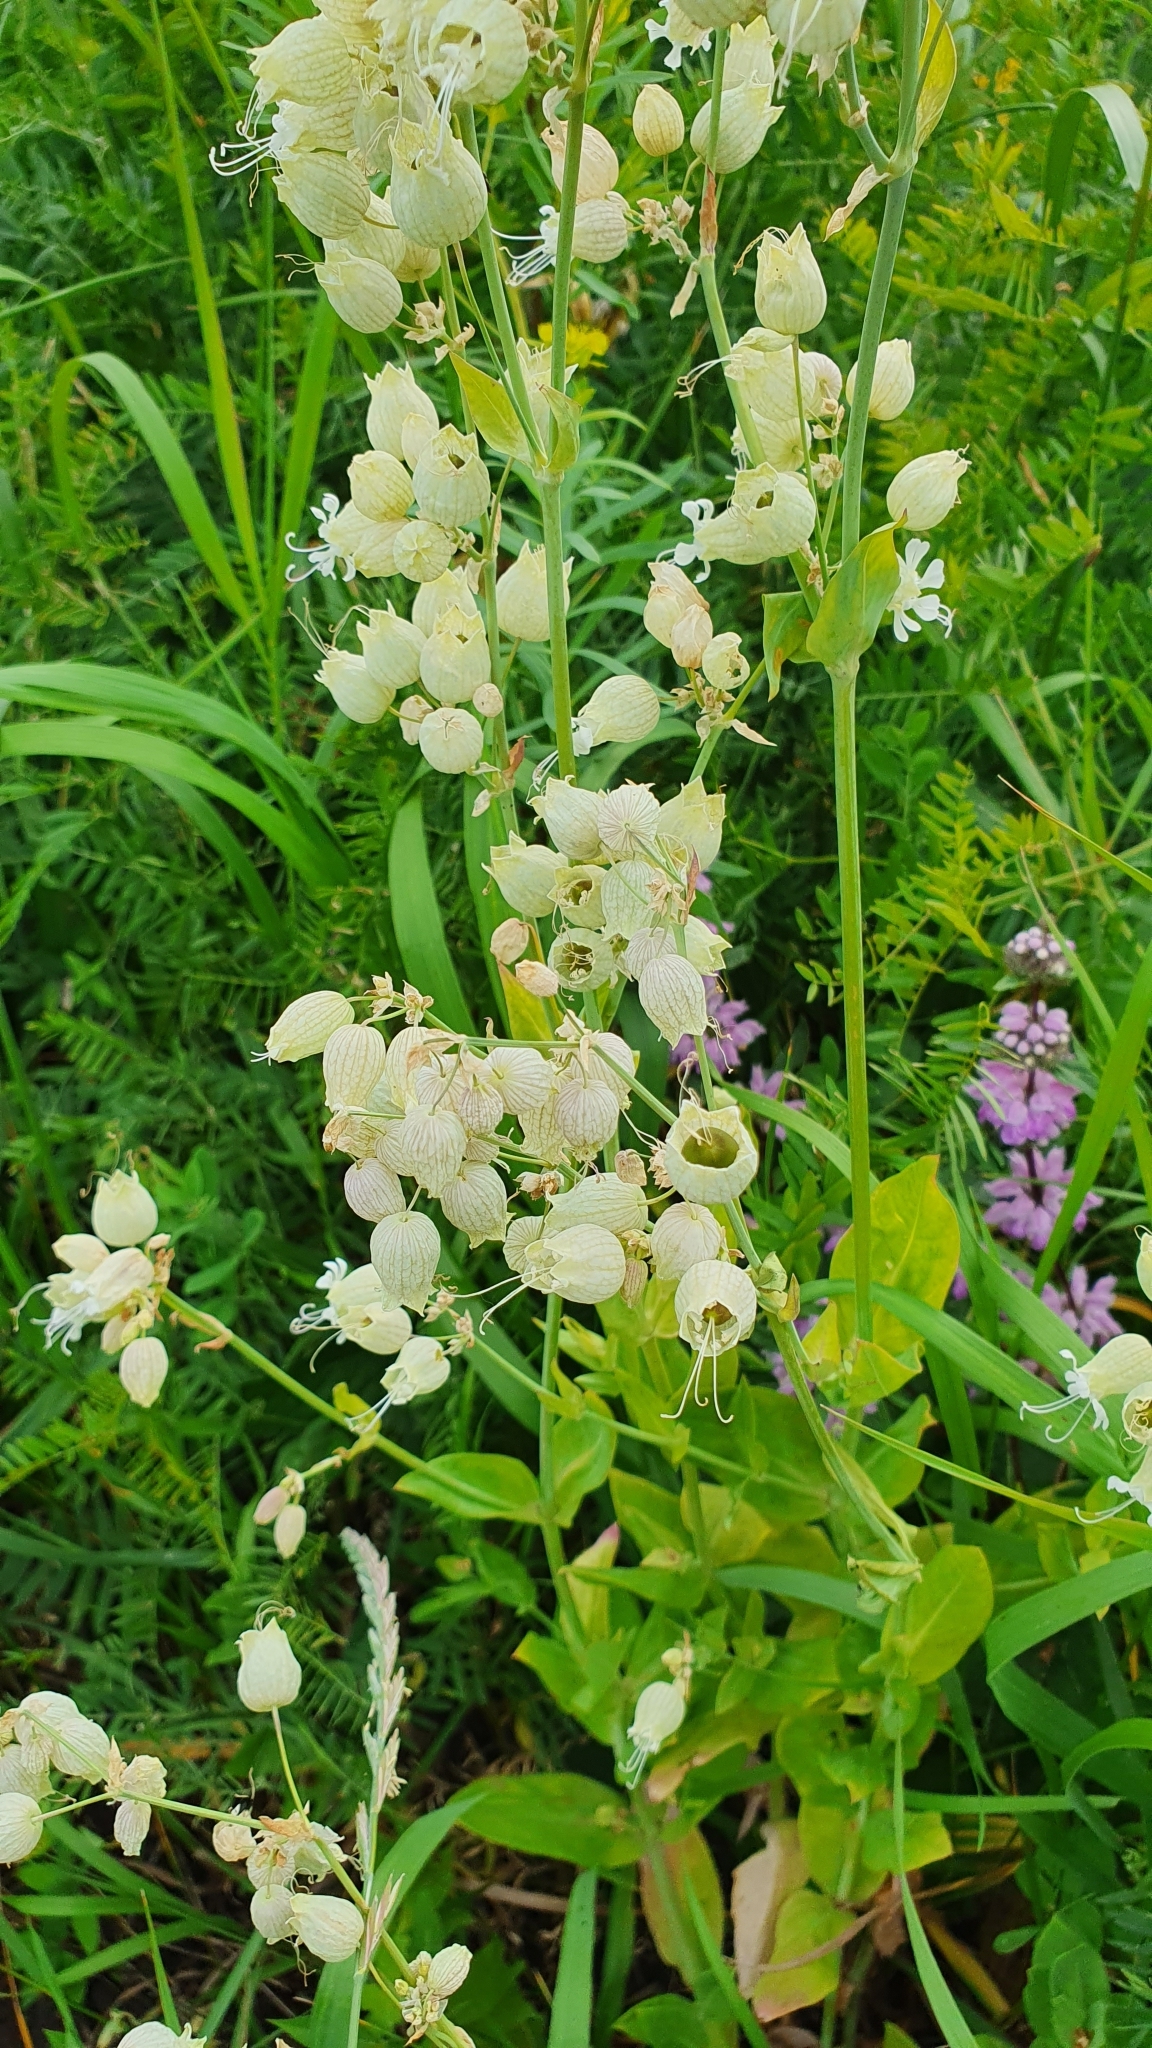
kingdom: Plantae
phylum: Tracheophyta
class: Magnoliopsida
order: Caryophyllales
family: Caryophyllaceae
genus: Silene
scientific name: Silene vulgaris
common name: Bladder campion
